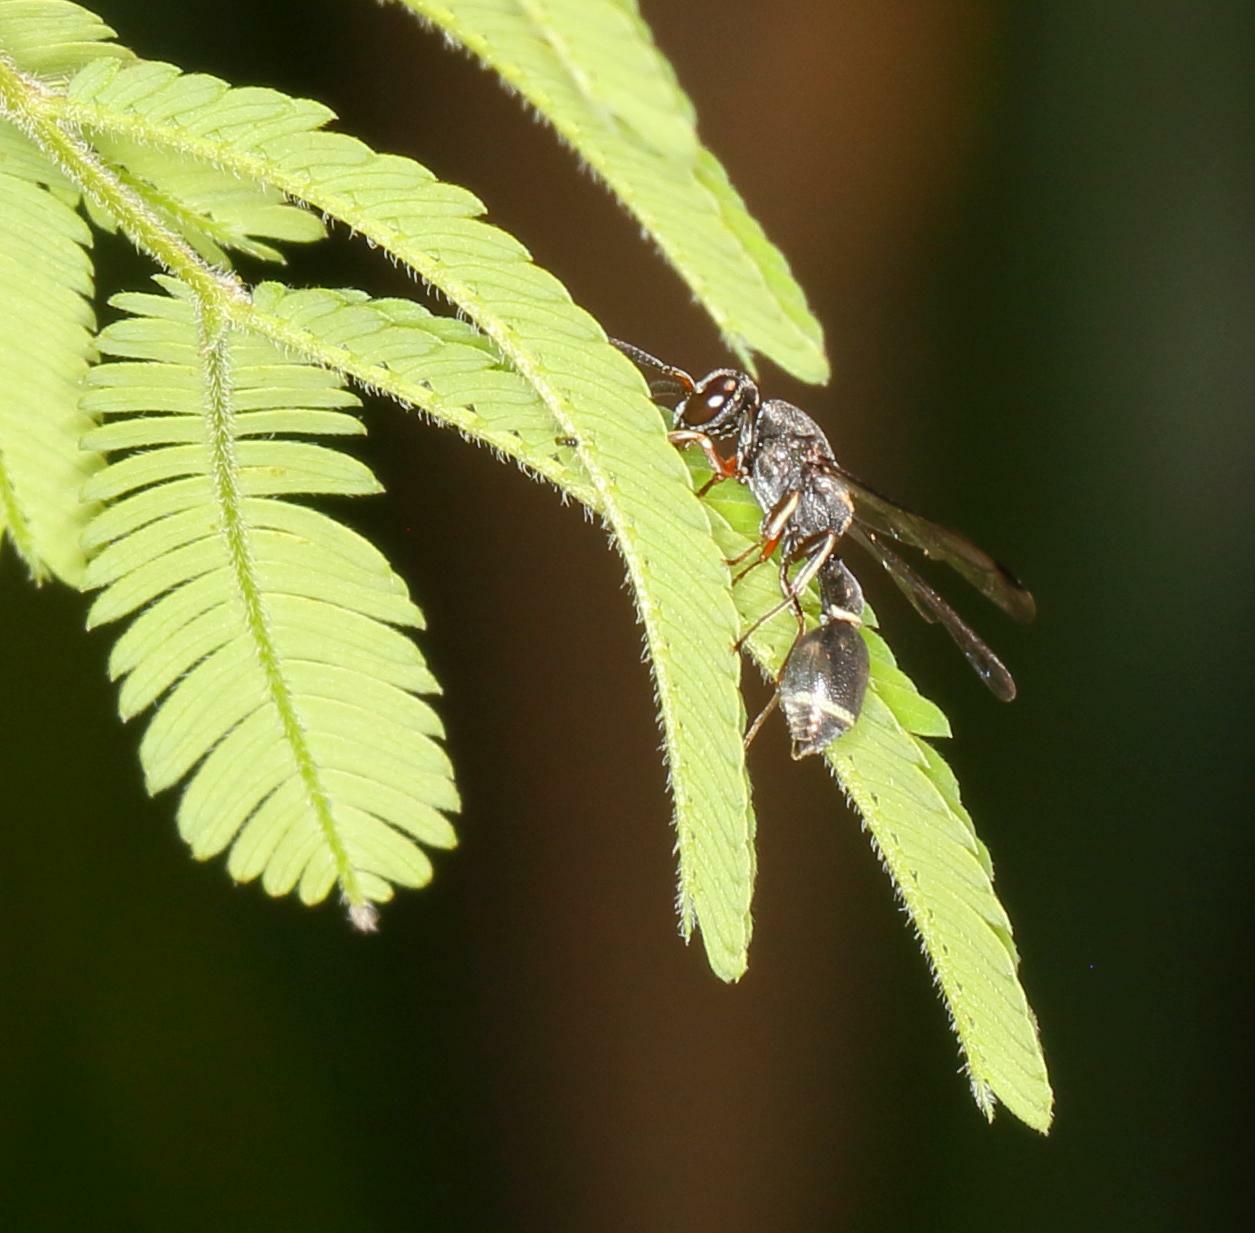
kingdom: Animalia
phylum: Arthropoda
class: Insecta
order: Hymenoptera
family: Eumenidae
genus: Pseudonortonia
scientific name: Pseudonortonia
